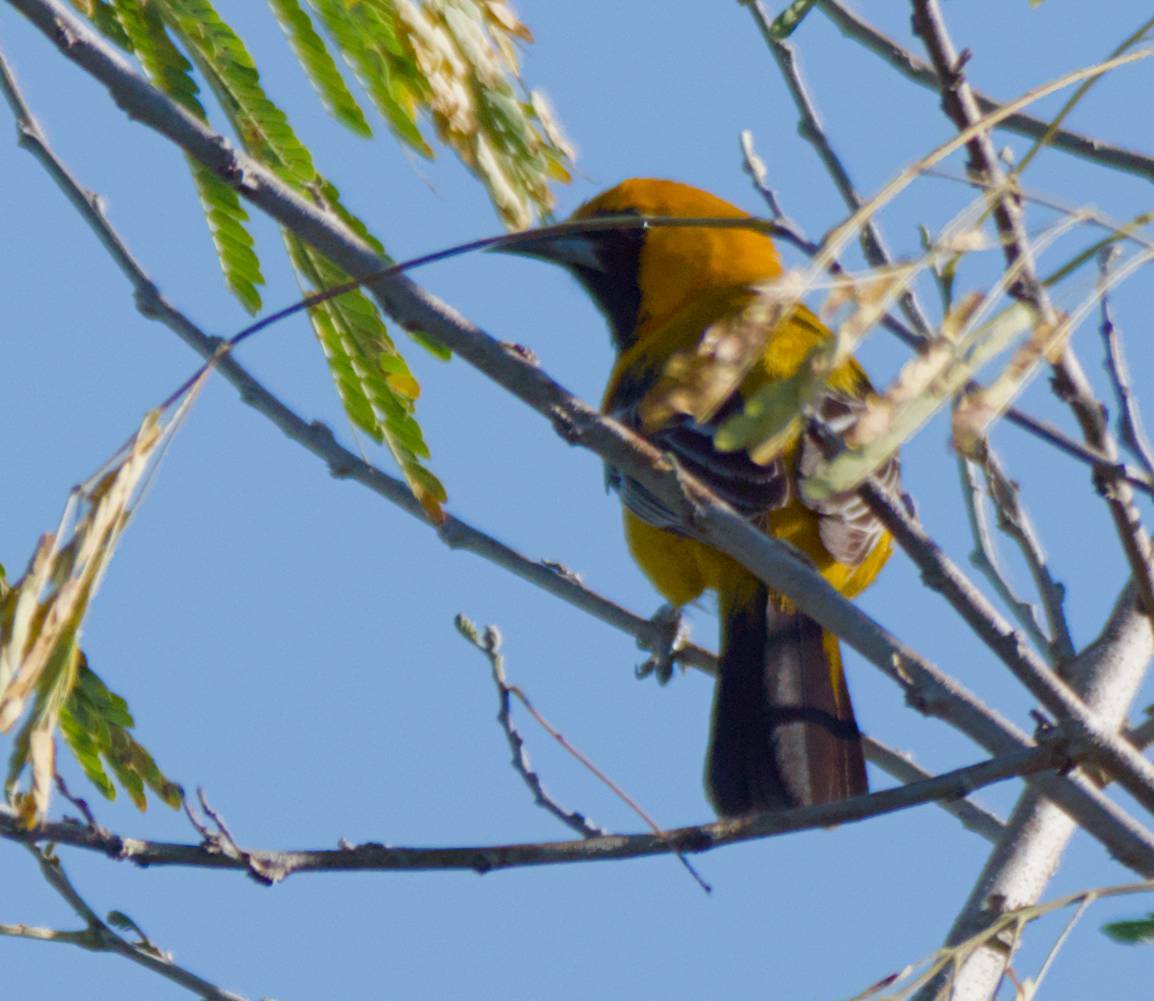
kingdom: Animalia
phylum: Chordata
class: Aves
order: Passeriformes
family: Icteridae
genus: Icterus
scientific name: Icterus auratus
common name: Orange oriole
